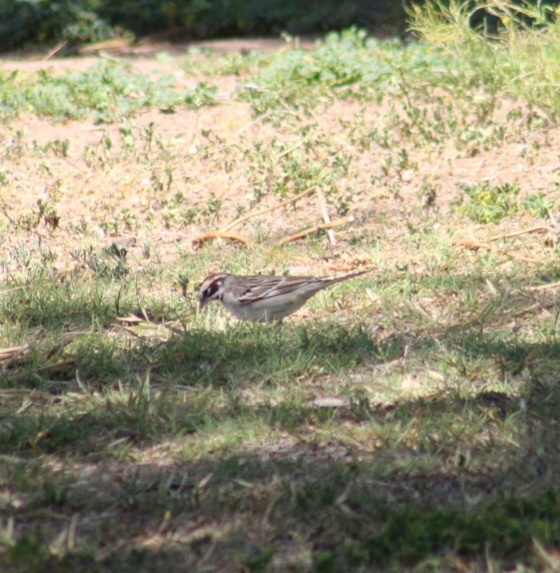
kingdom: Animalia
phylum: Chordata
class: Aves
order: Passeriformes
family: Passerellidae
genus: Chondestes
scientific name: Chondestes grammacus
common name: Lark sparrow
